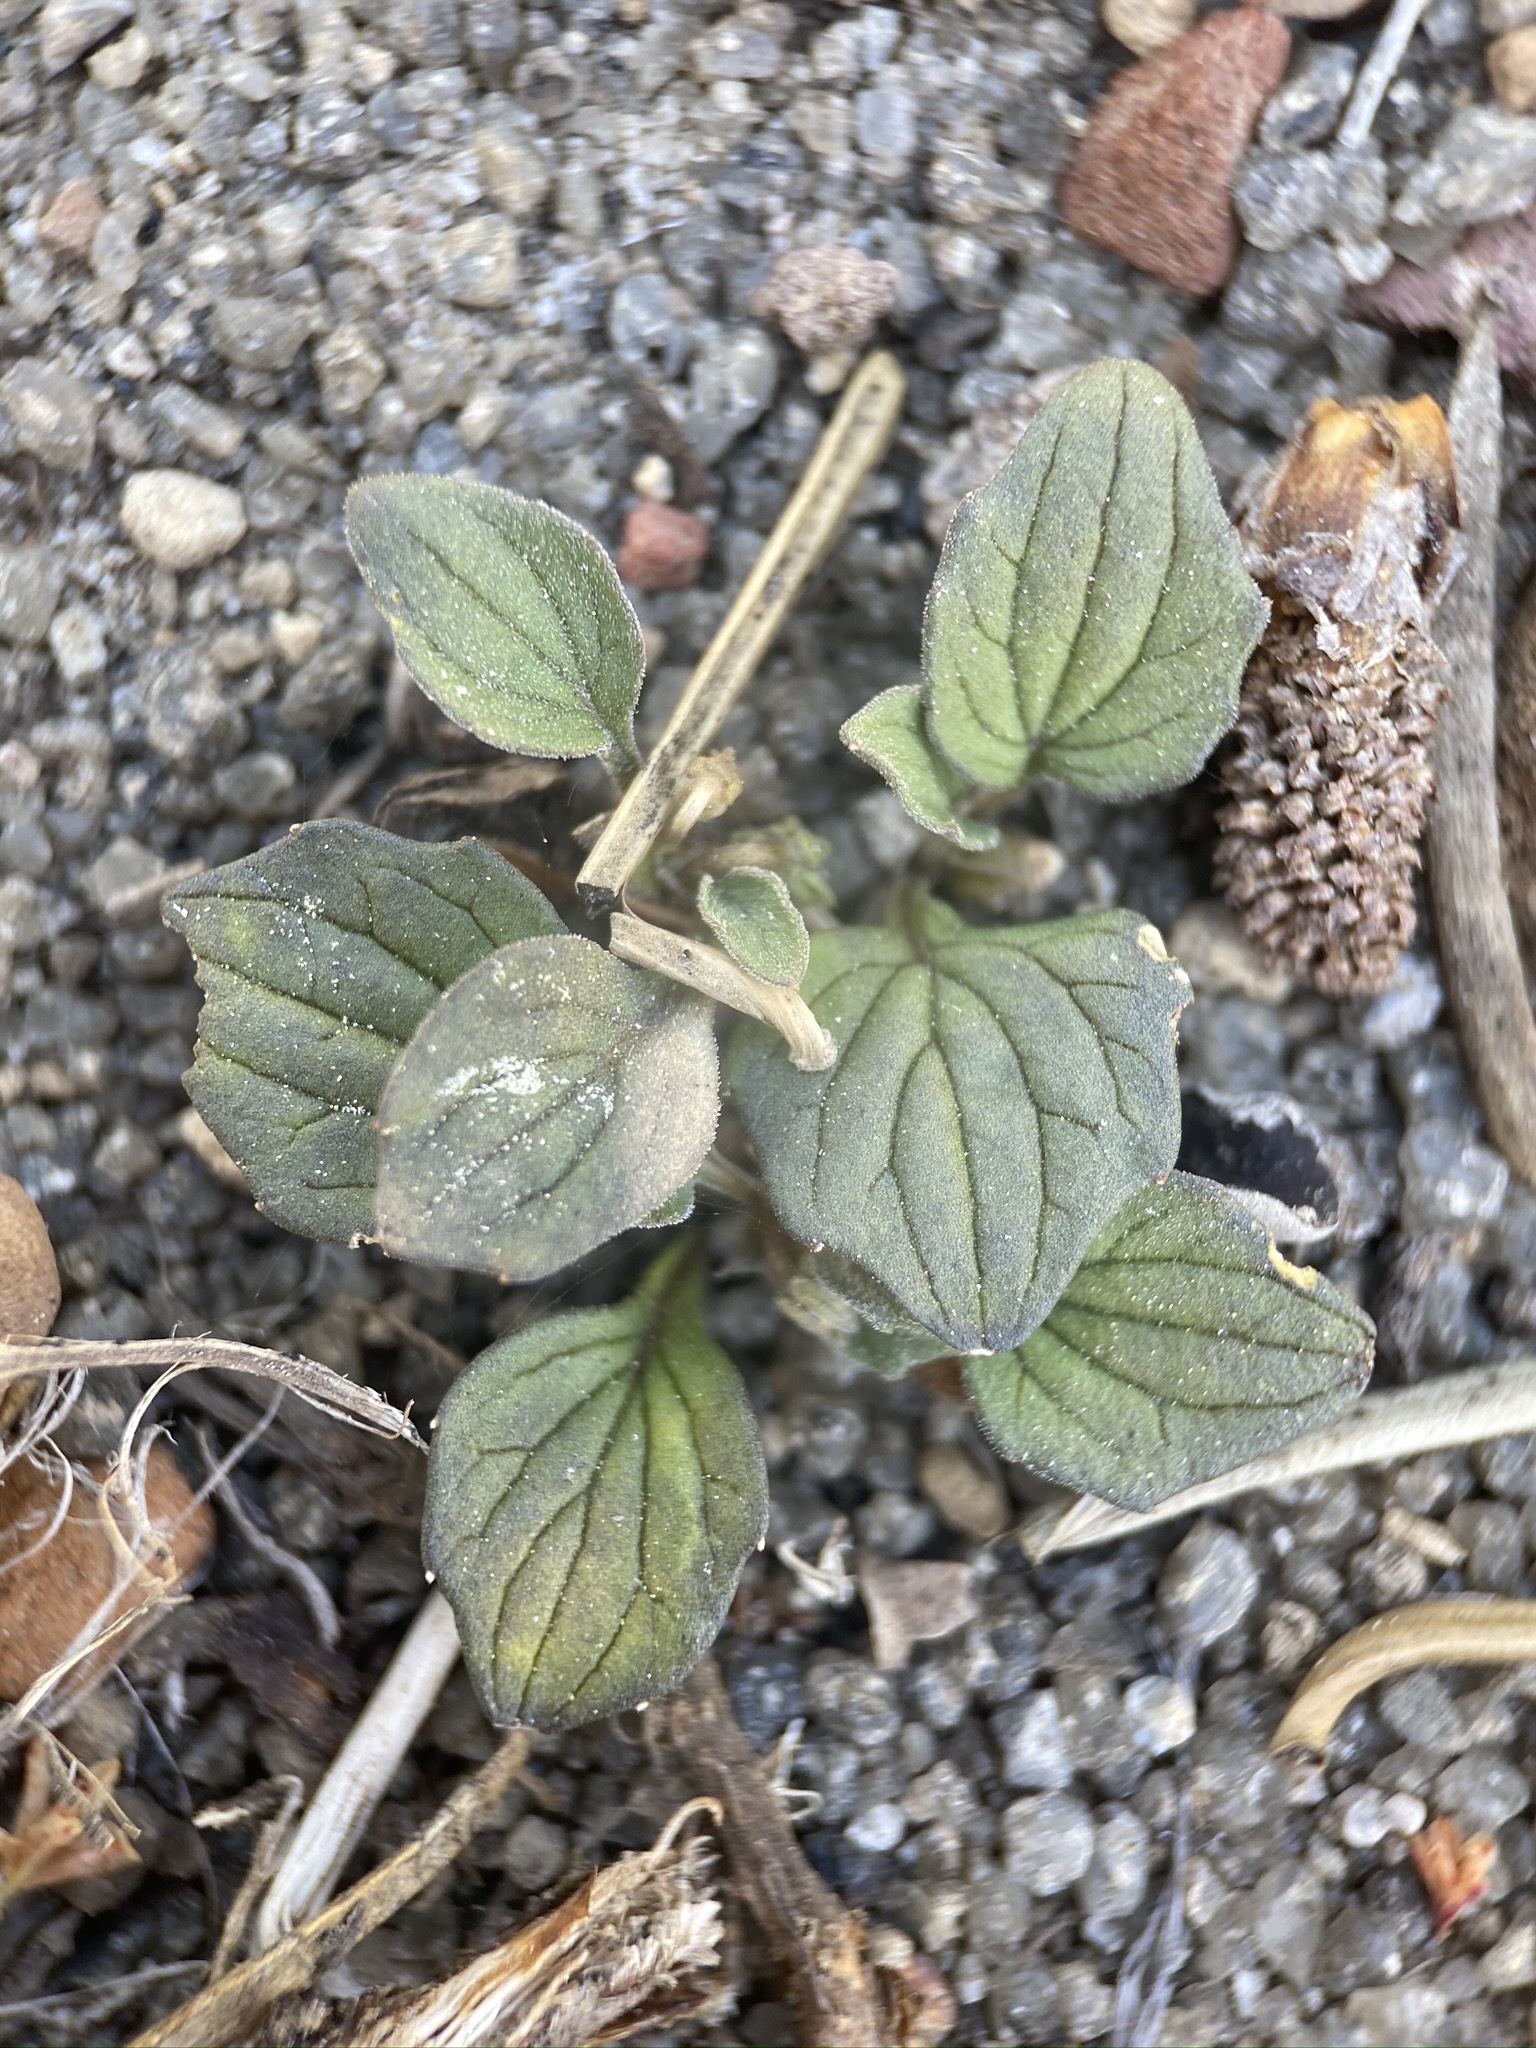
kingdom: Plantae
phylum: Tracheophyta
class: Magnoliopsida
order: Malpighiales
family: Violaceae
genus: Viola
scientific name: Viola purpurea
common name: Pine violet
